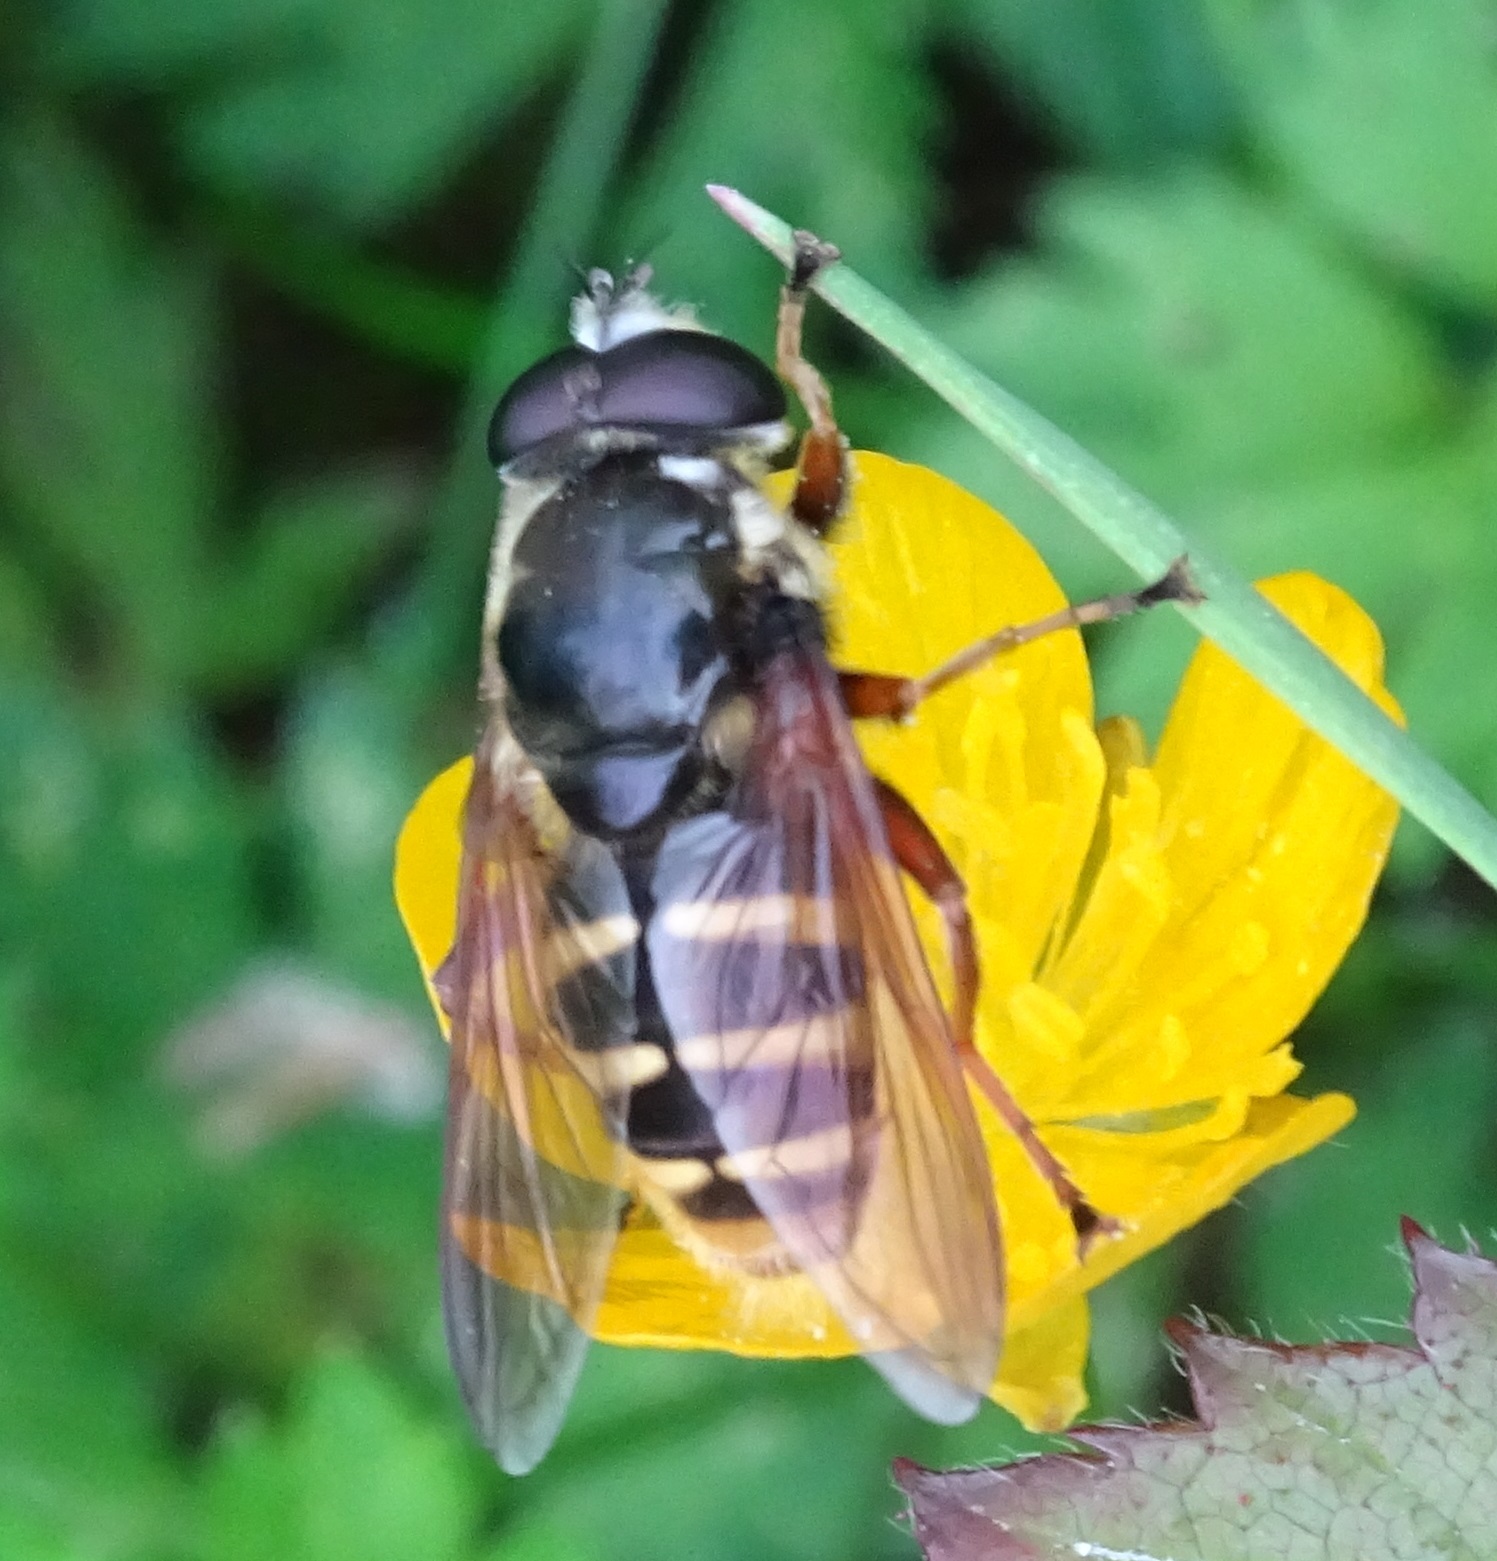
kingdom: Animalia
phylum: Arthropoda
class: Insecta
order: Diptera
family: Syrphidae
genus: Sericomyia
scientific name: Sericomyia silentis
